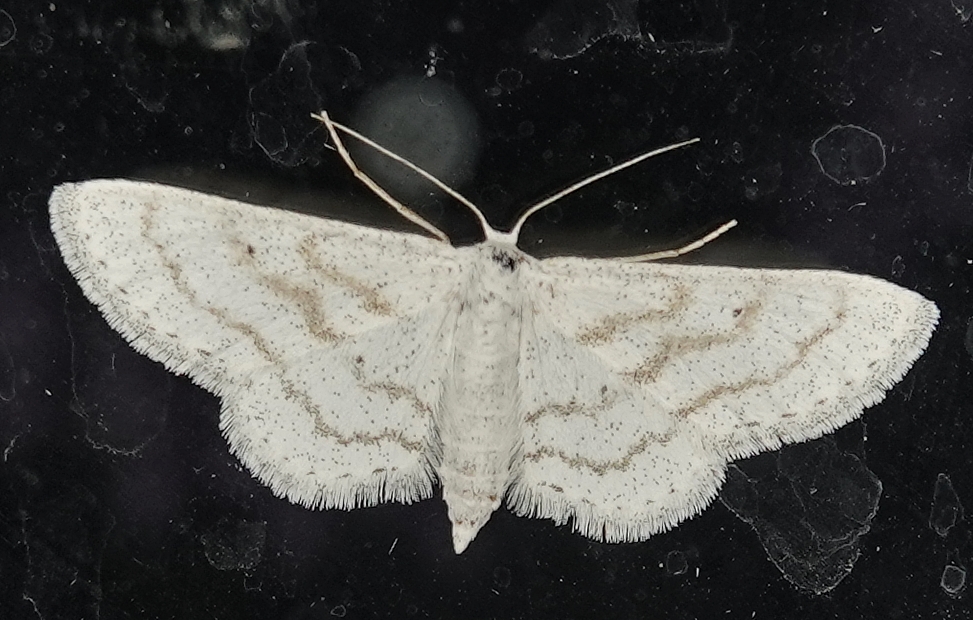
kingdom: Animalia
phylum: Arthropoda
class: Insecta
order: Lepidoptera
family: Geometridae
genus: Lobocleta
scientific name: Lobocleta peralbata
